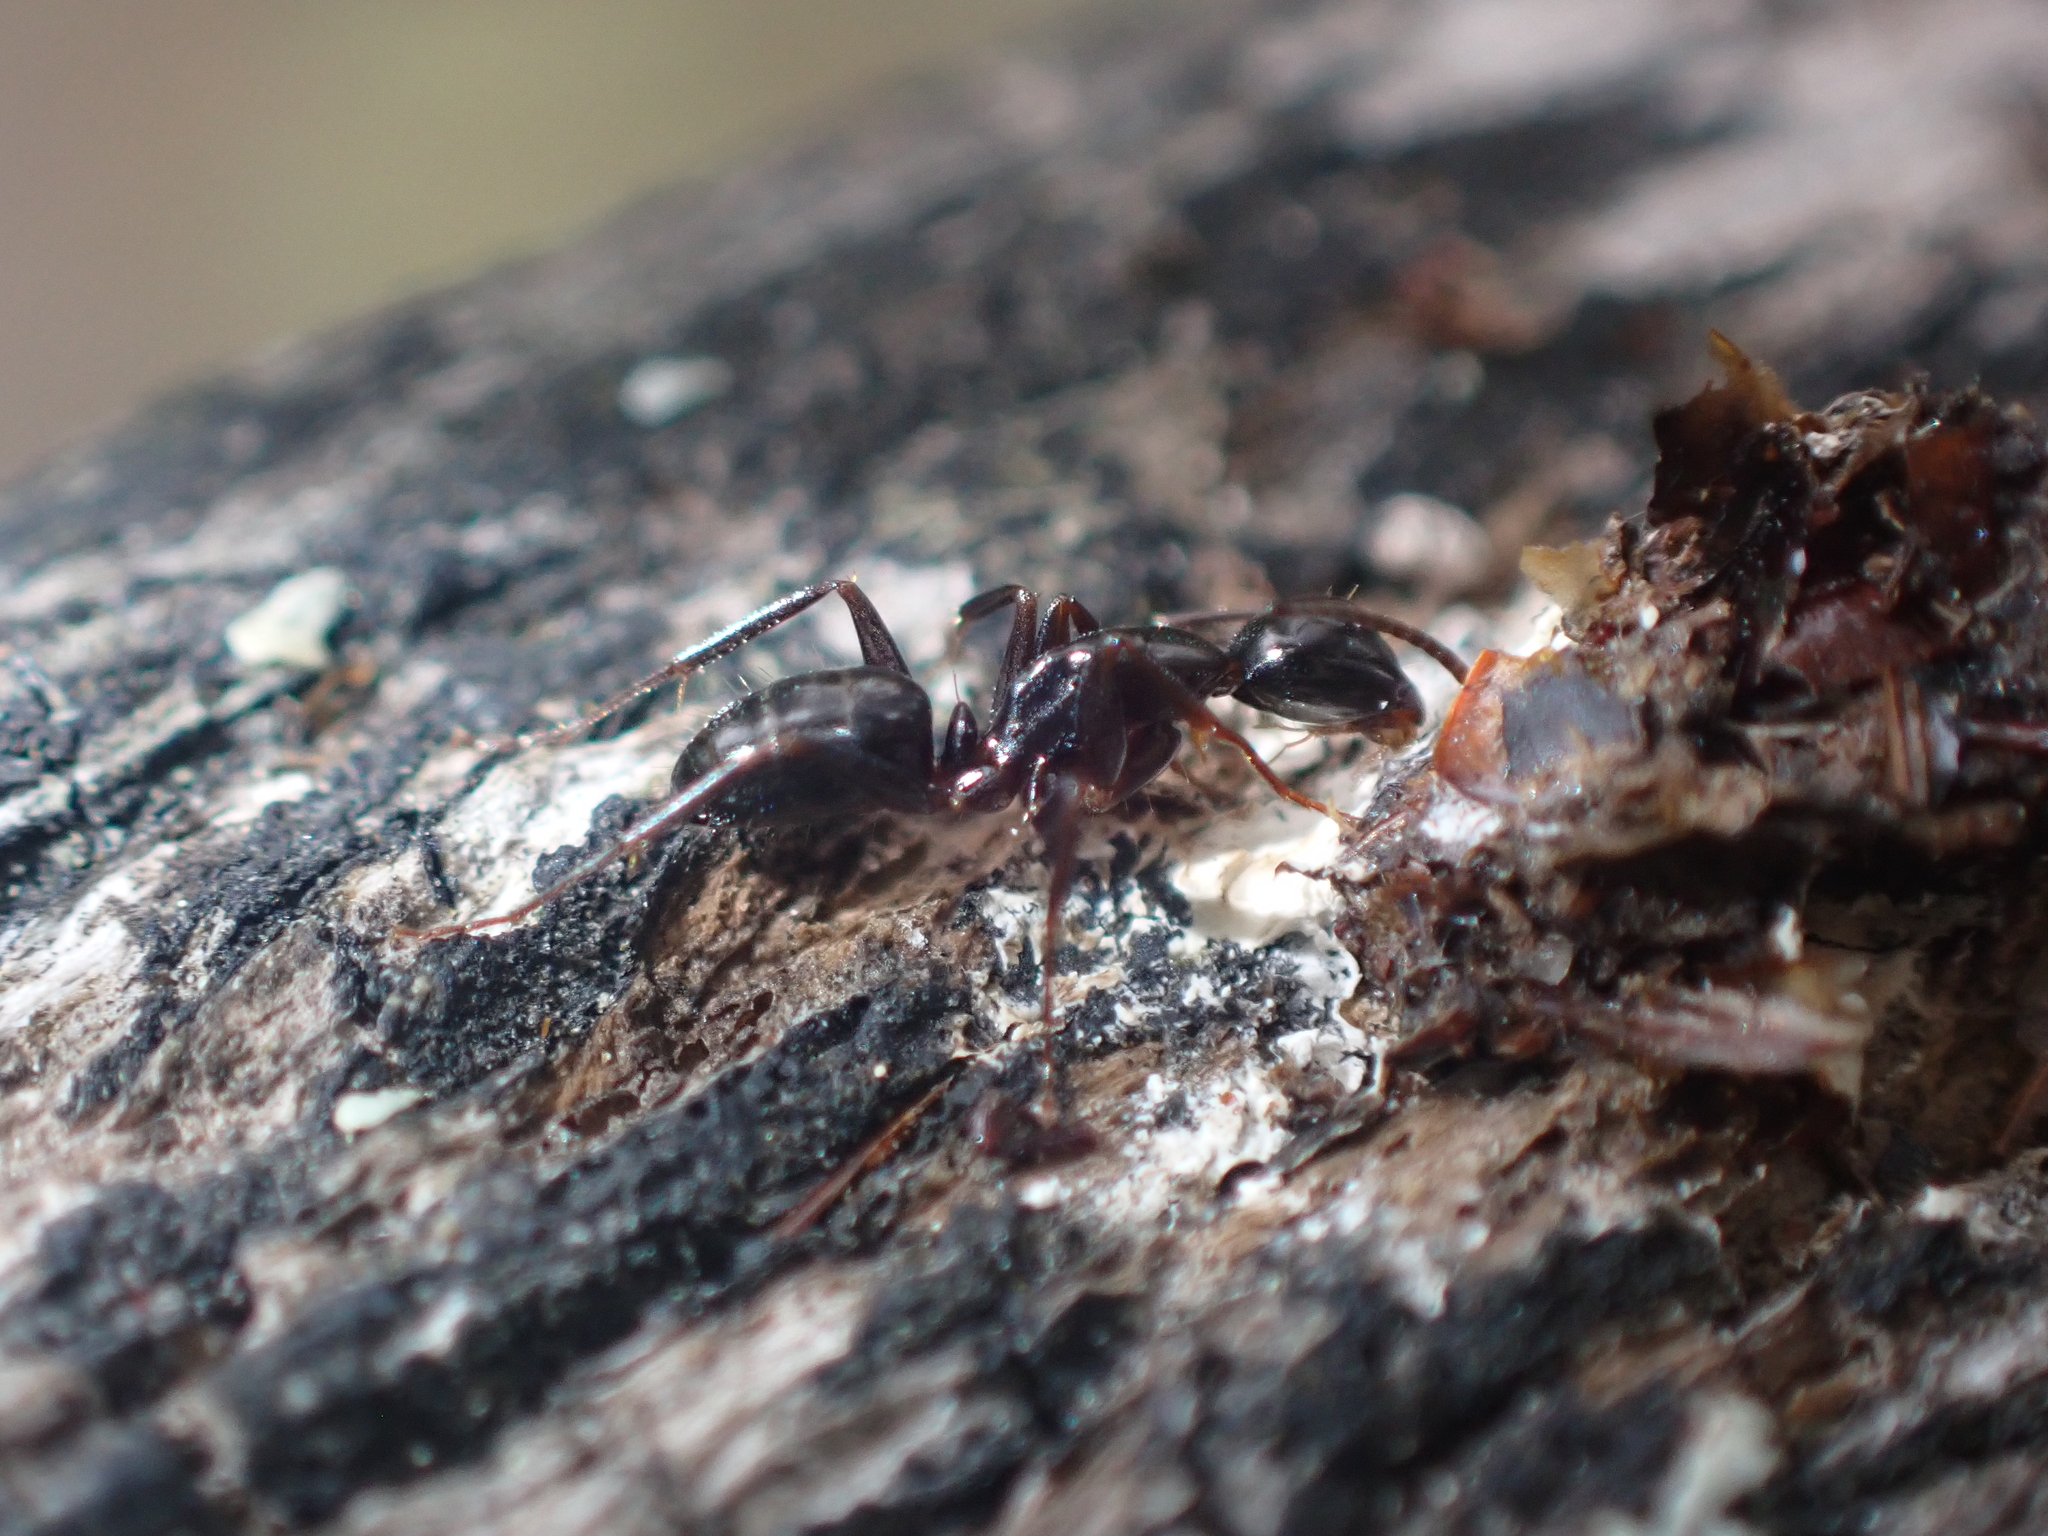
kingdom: Animalia
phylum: Arthropoda
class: Insecta
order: Hymenoptera
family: Formicidae
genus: Camponotus
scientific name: Camponotus nearcticus
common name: Smaller carpenter ant
